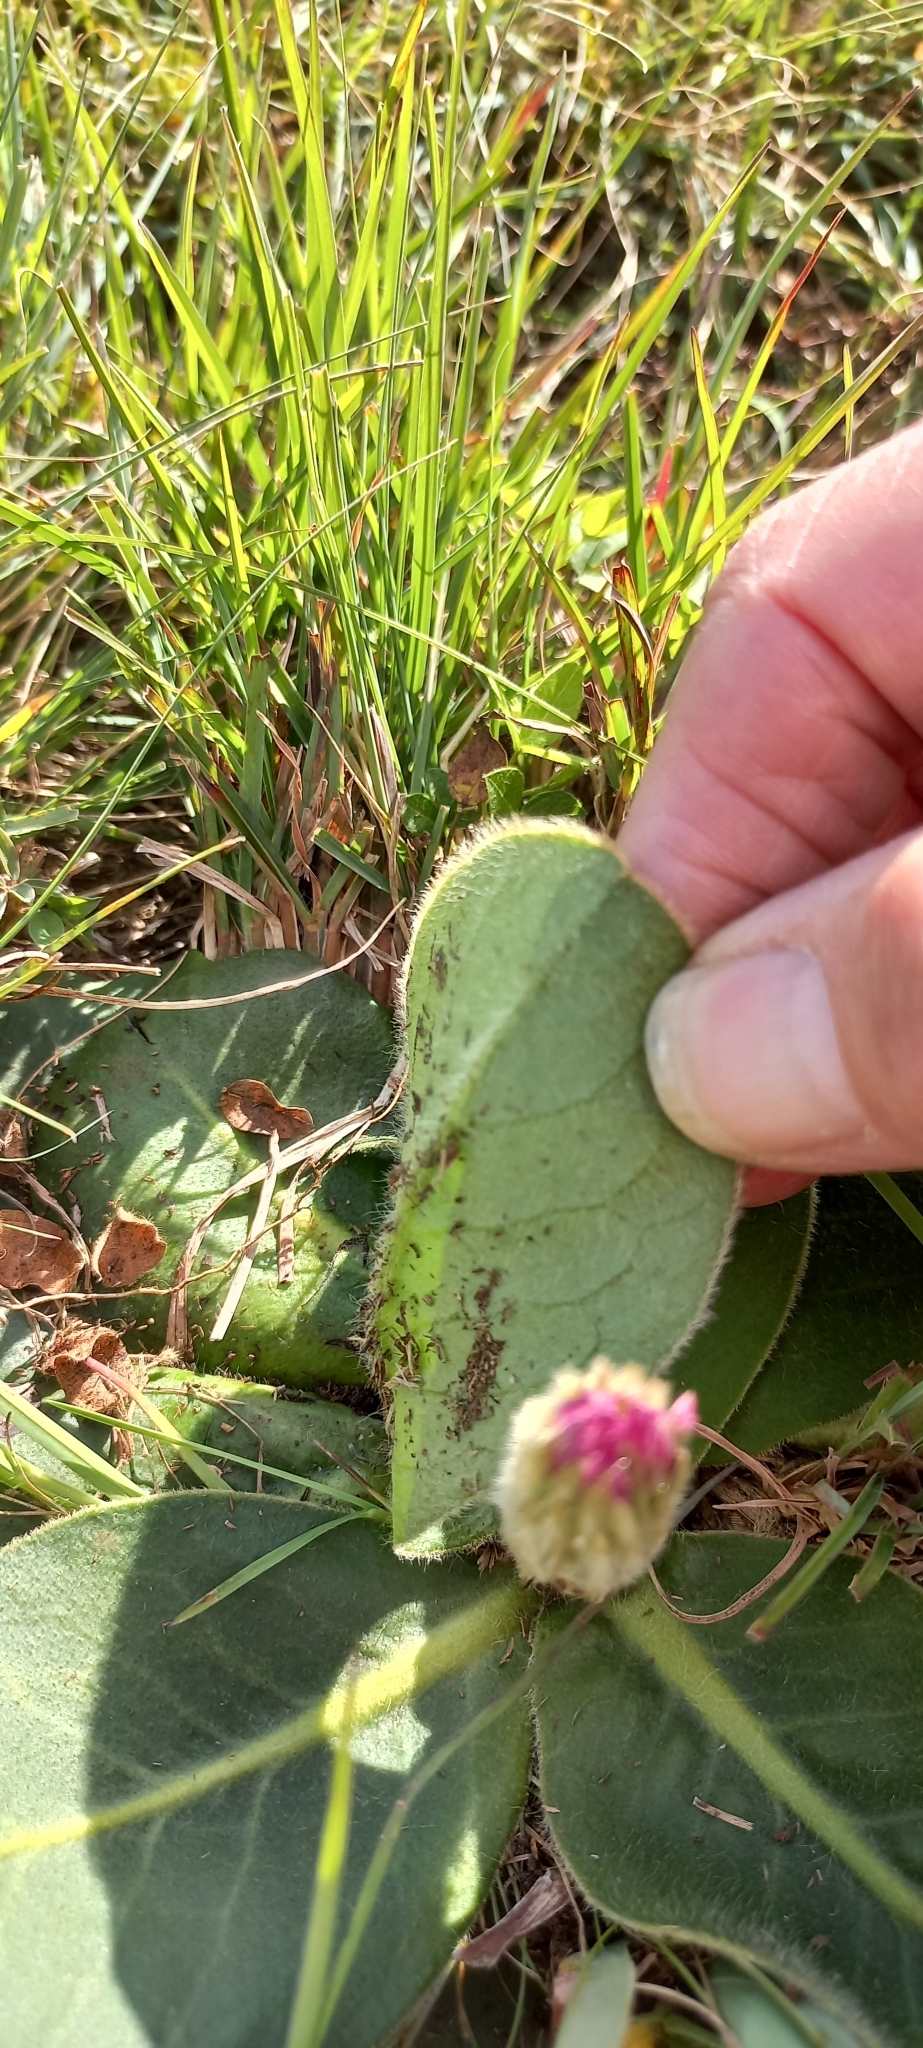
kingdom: Plantae
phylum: Tracheophyta
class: Magnoliopsida
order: Asterales
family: Asteraceae
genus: Piloselloides
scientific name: Piloselloides hirsuta
